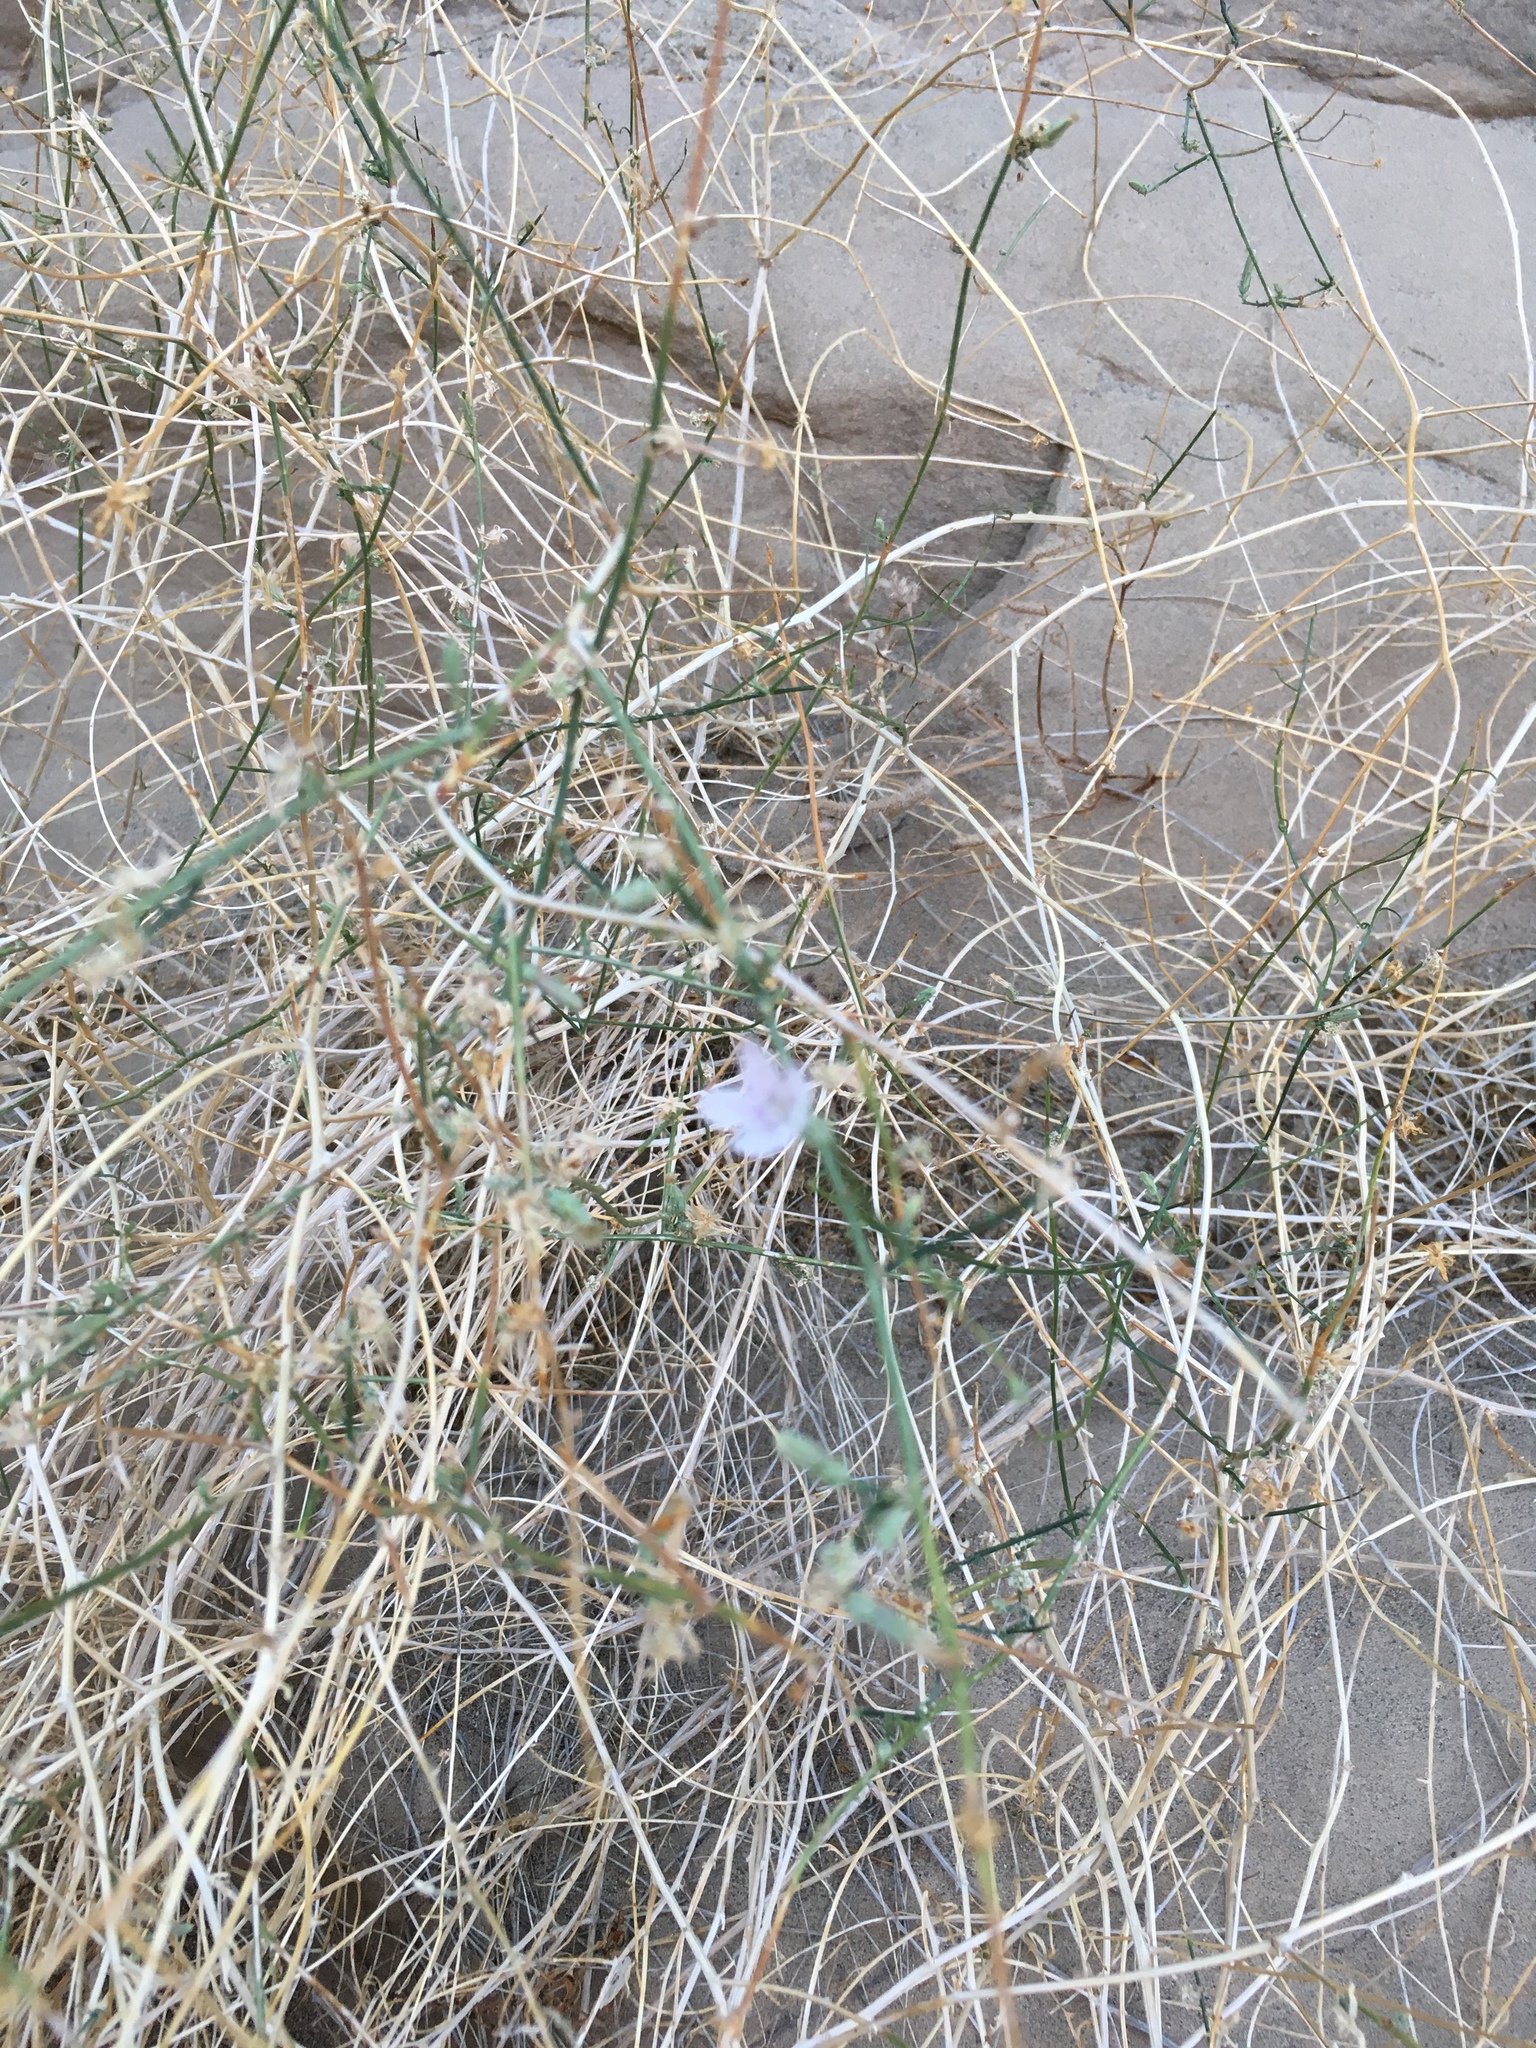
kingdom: Plantae
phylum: Tracheophyta
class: Magnoliopsida
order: Asterales
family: Asteraceae
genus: Stephanomeria
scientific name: Stephanomeria pauciflora
